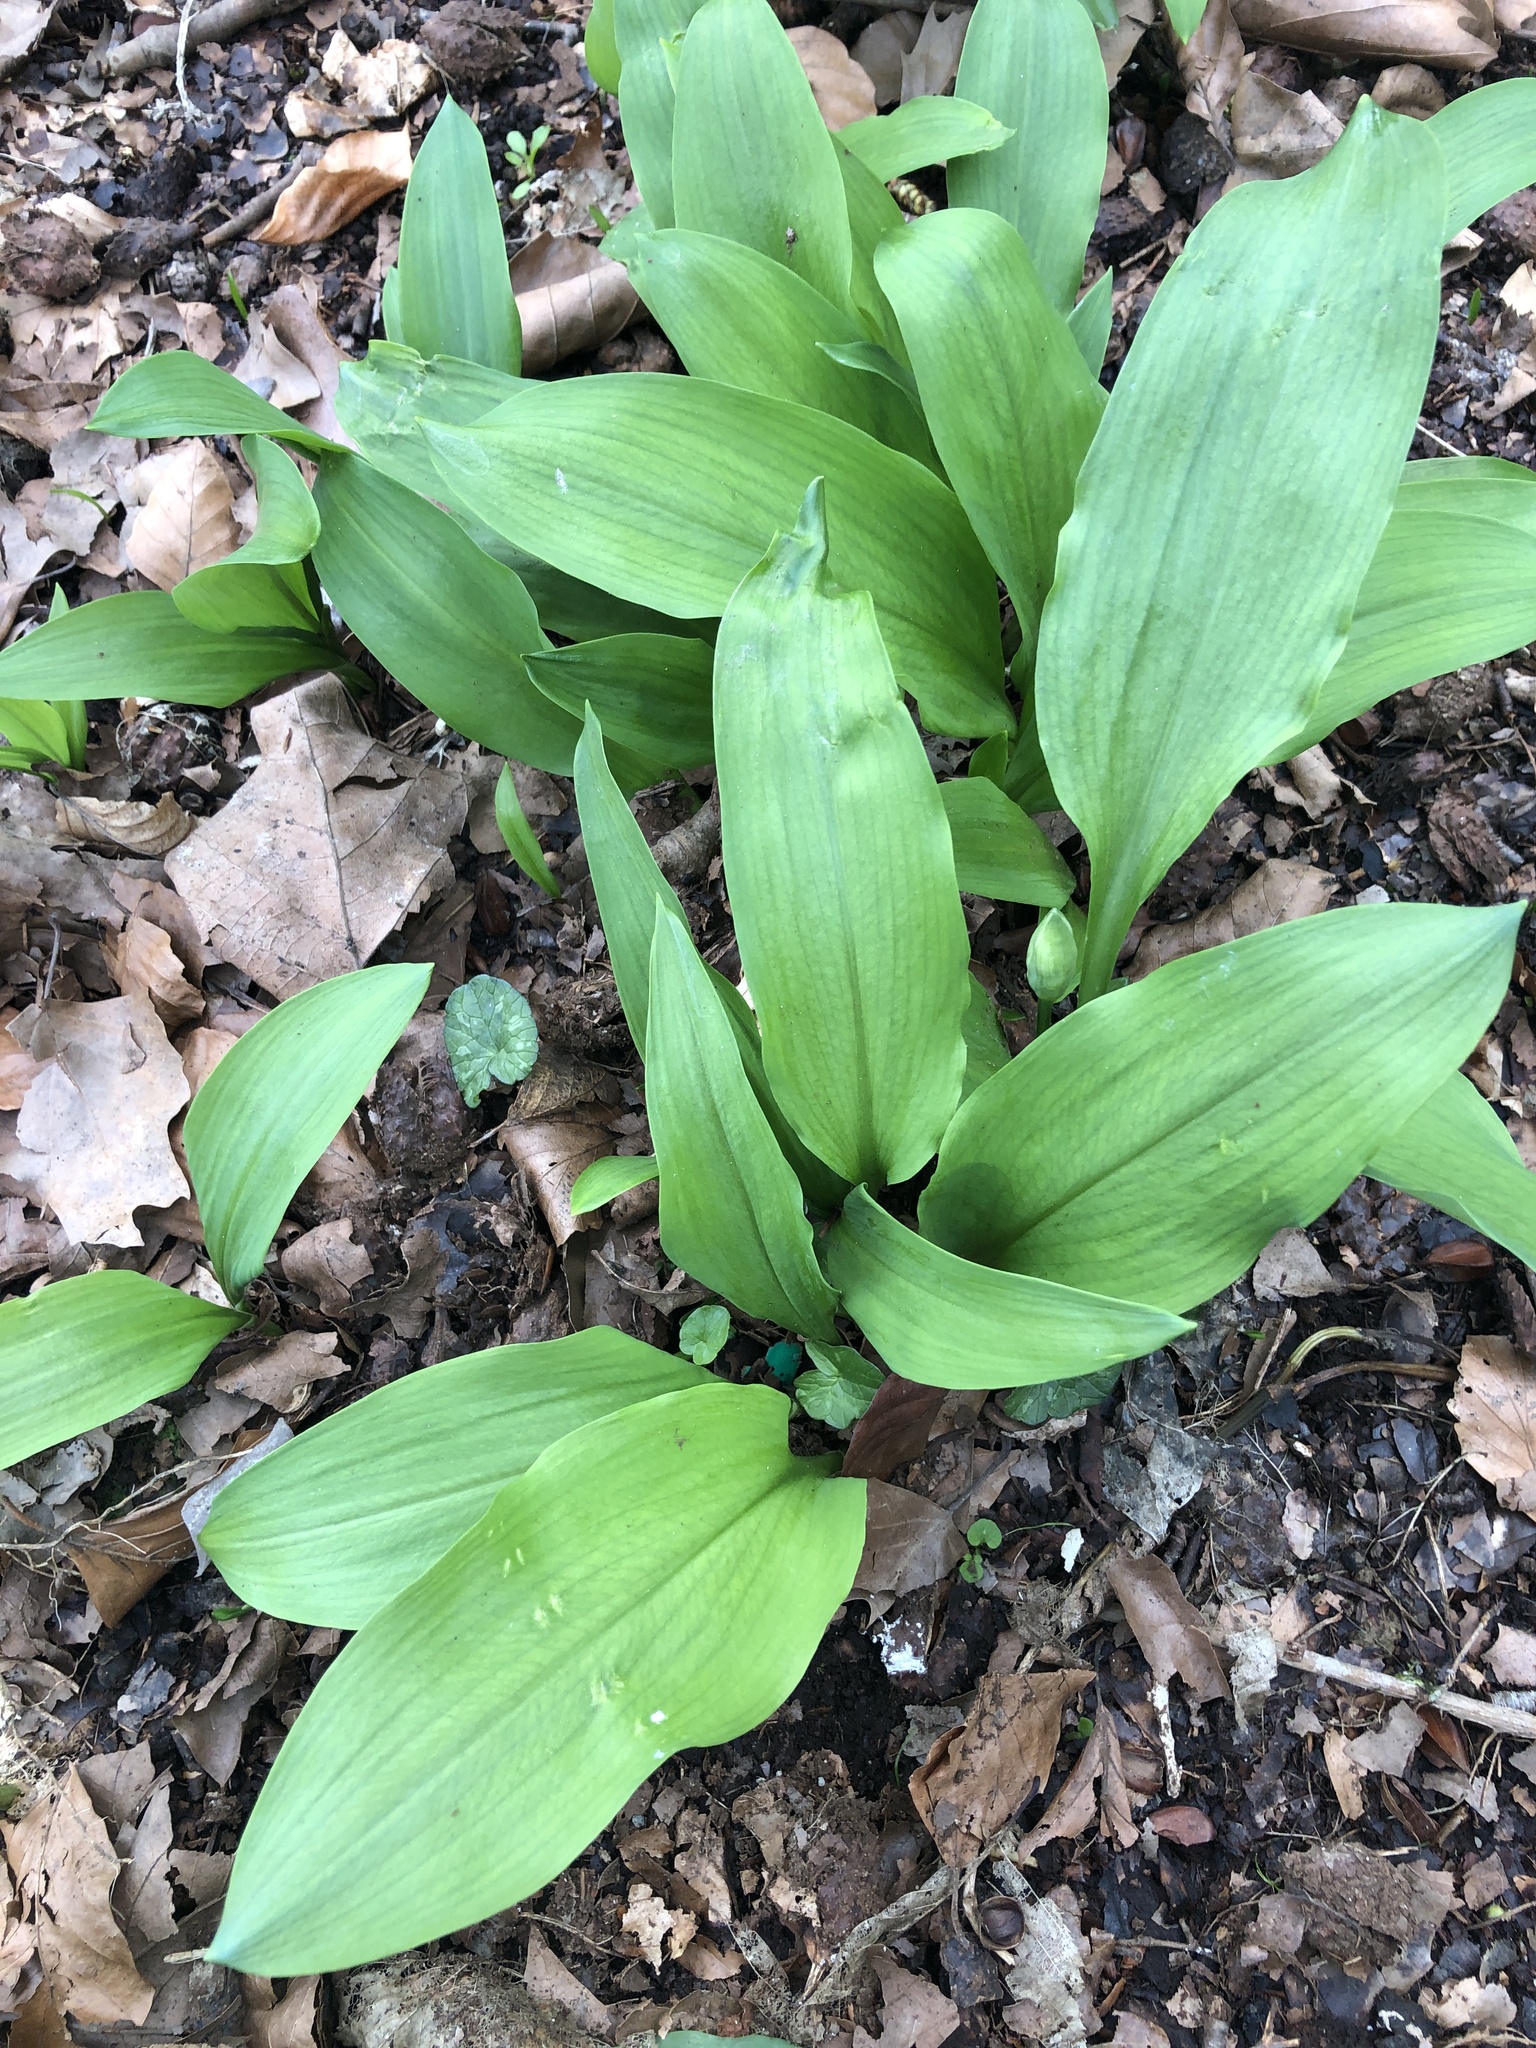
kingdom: Plantae
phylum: Tracheophyta
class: Liliopsida
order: Asparagales
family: Amaryllidaceae
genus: Allium
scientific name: Allium ursinum
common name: Ramsons
